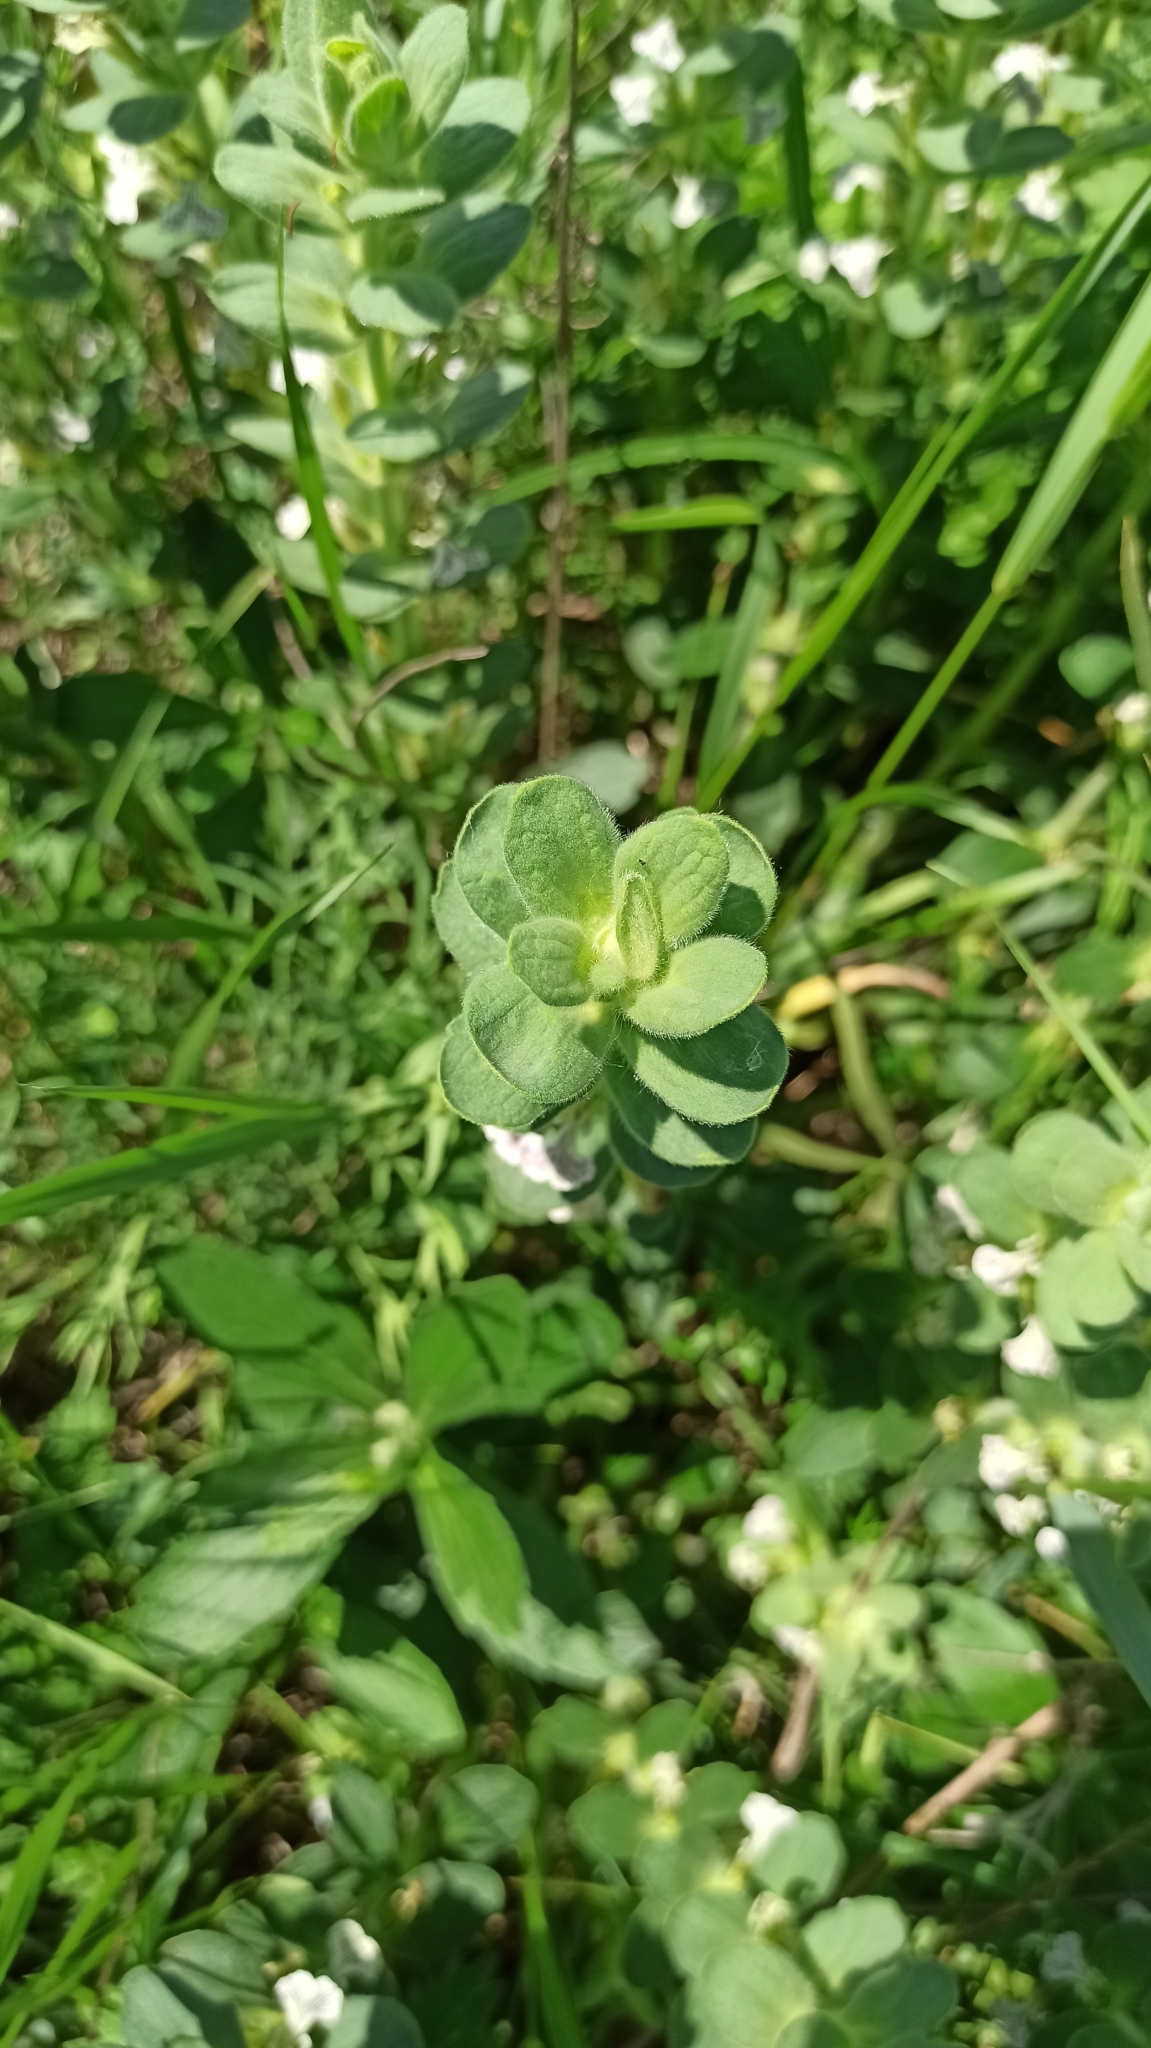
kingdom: Plantae
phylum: Tracheophyta
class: Magnoliopsida
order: Lamiales
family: Lamiaceae
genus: Ajuga
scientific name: Ajuga laxmannii
